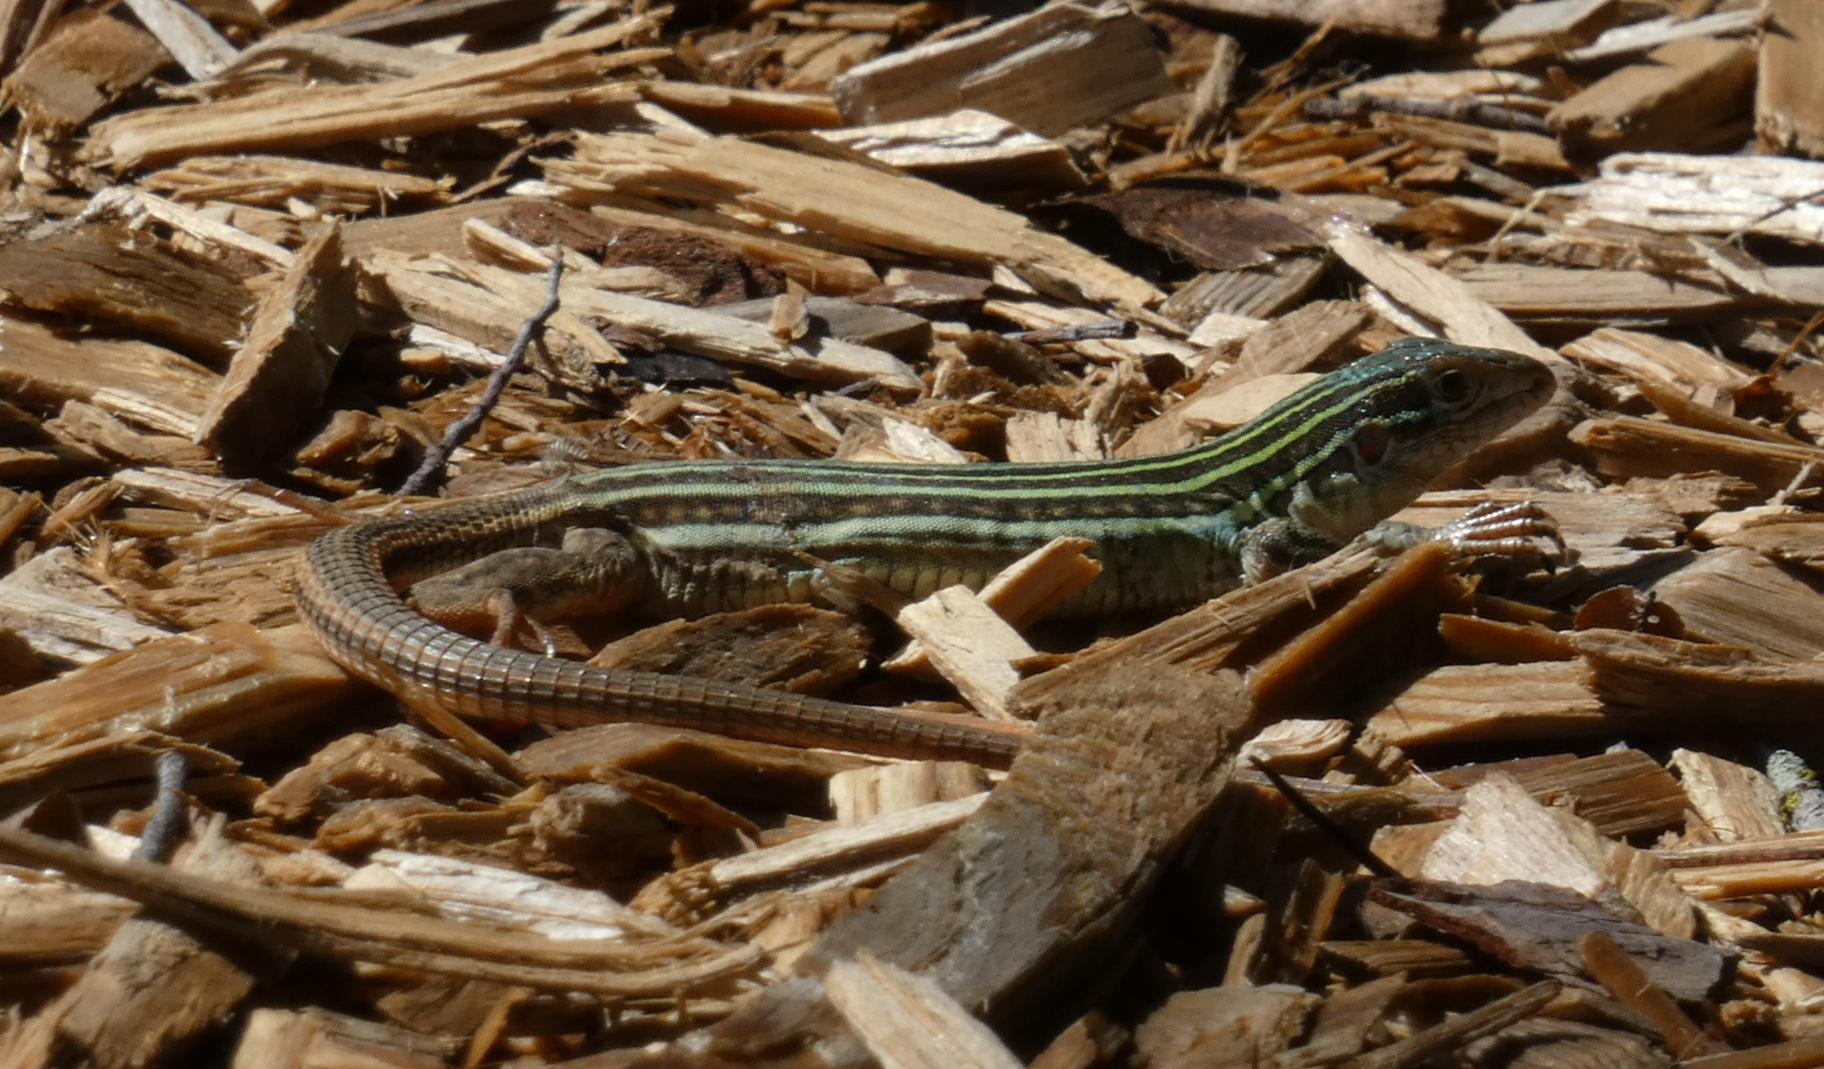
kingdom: Animalia
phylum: Chordata
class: Squamata
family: Teiidae
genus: Aspidoscelis
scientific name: Aspidoscelis gularis
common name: Eastern spotted whiptail
